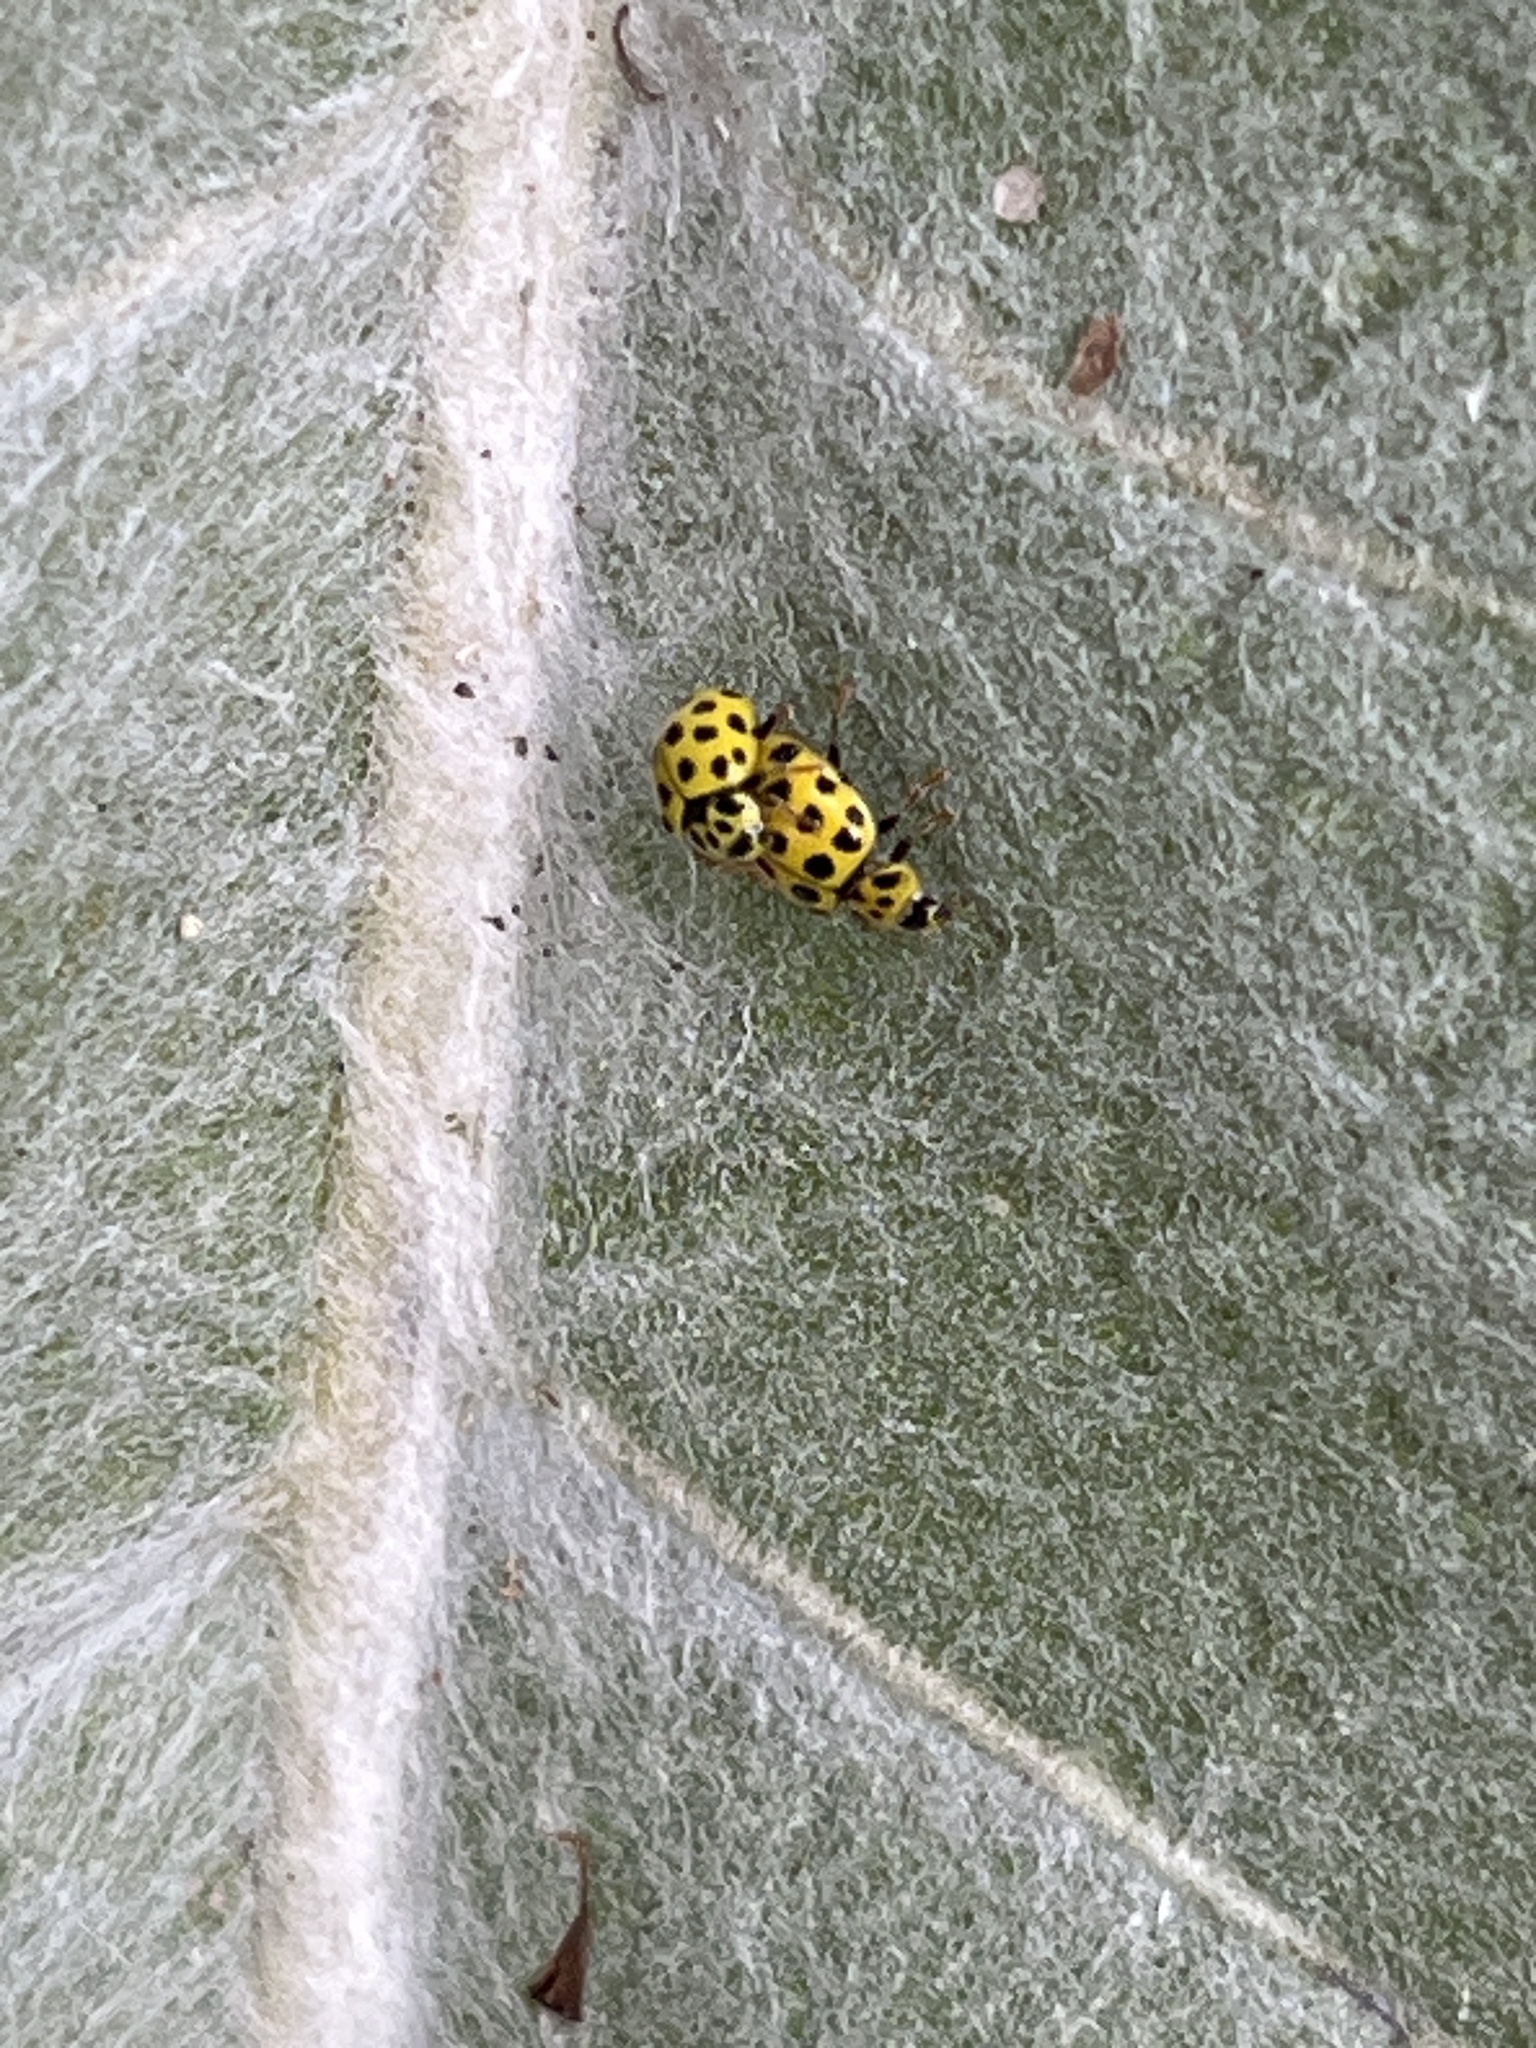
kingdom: Animalia
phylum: Arthropoda
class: Insecta
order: Coleoptera
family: Coccinellidae
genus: Psyllobora
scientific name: Psyllobora vigintiduopunctata
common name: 22-spot ladybird
